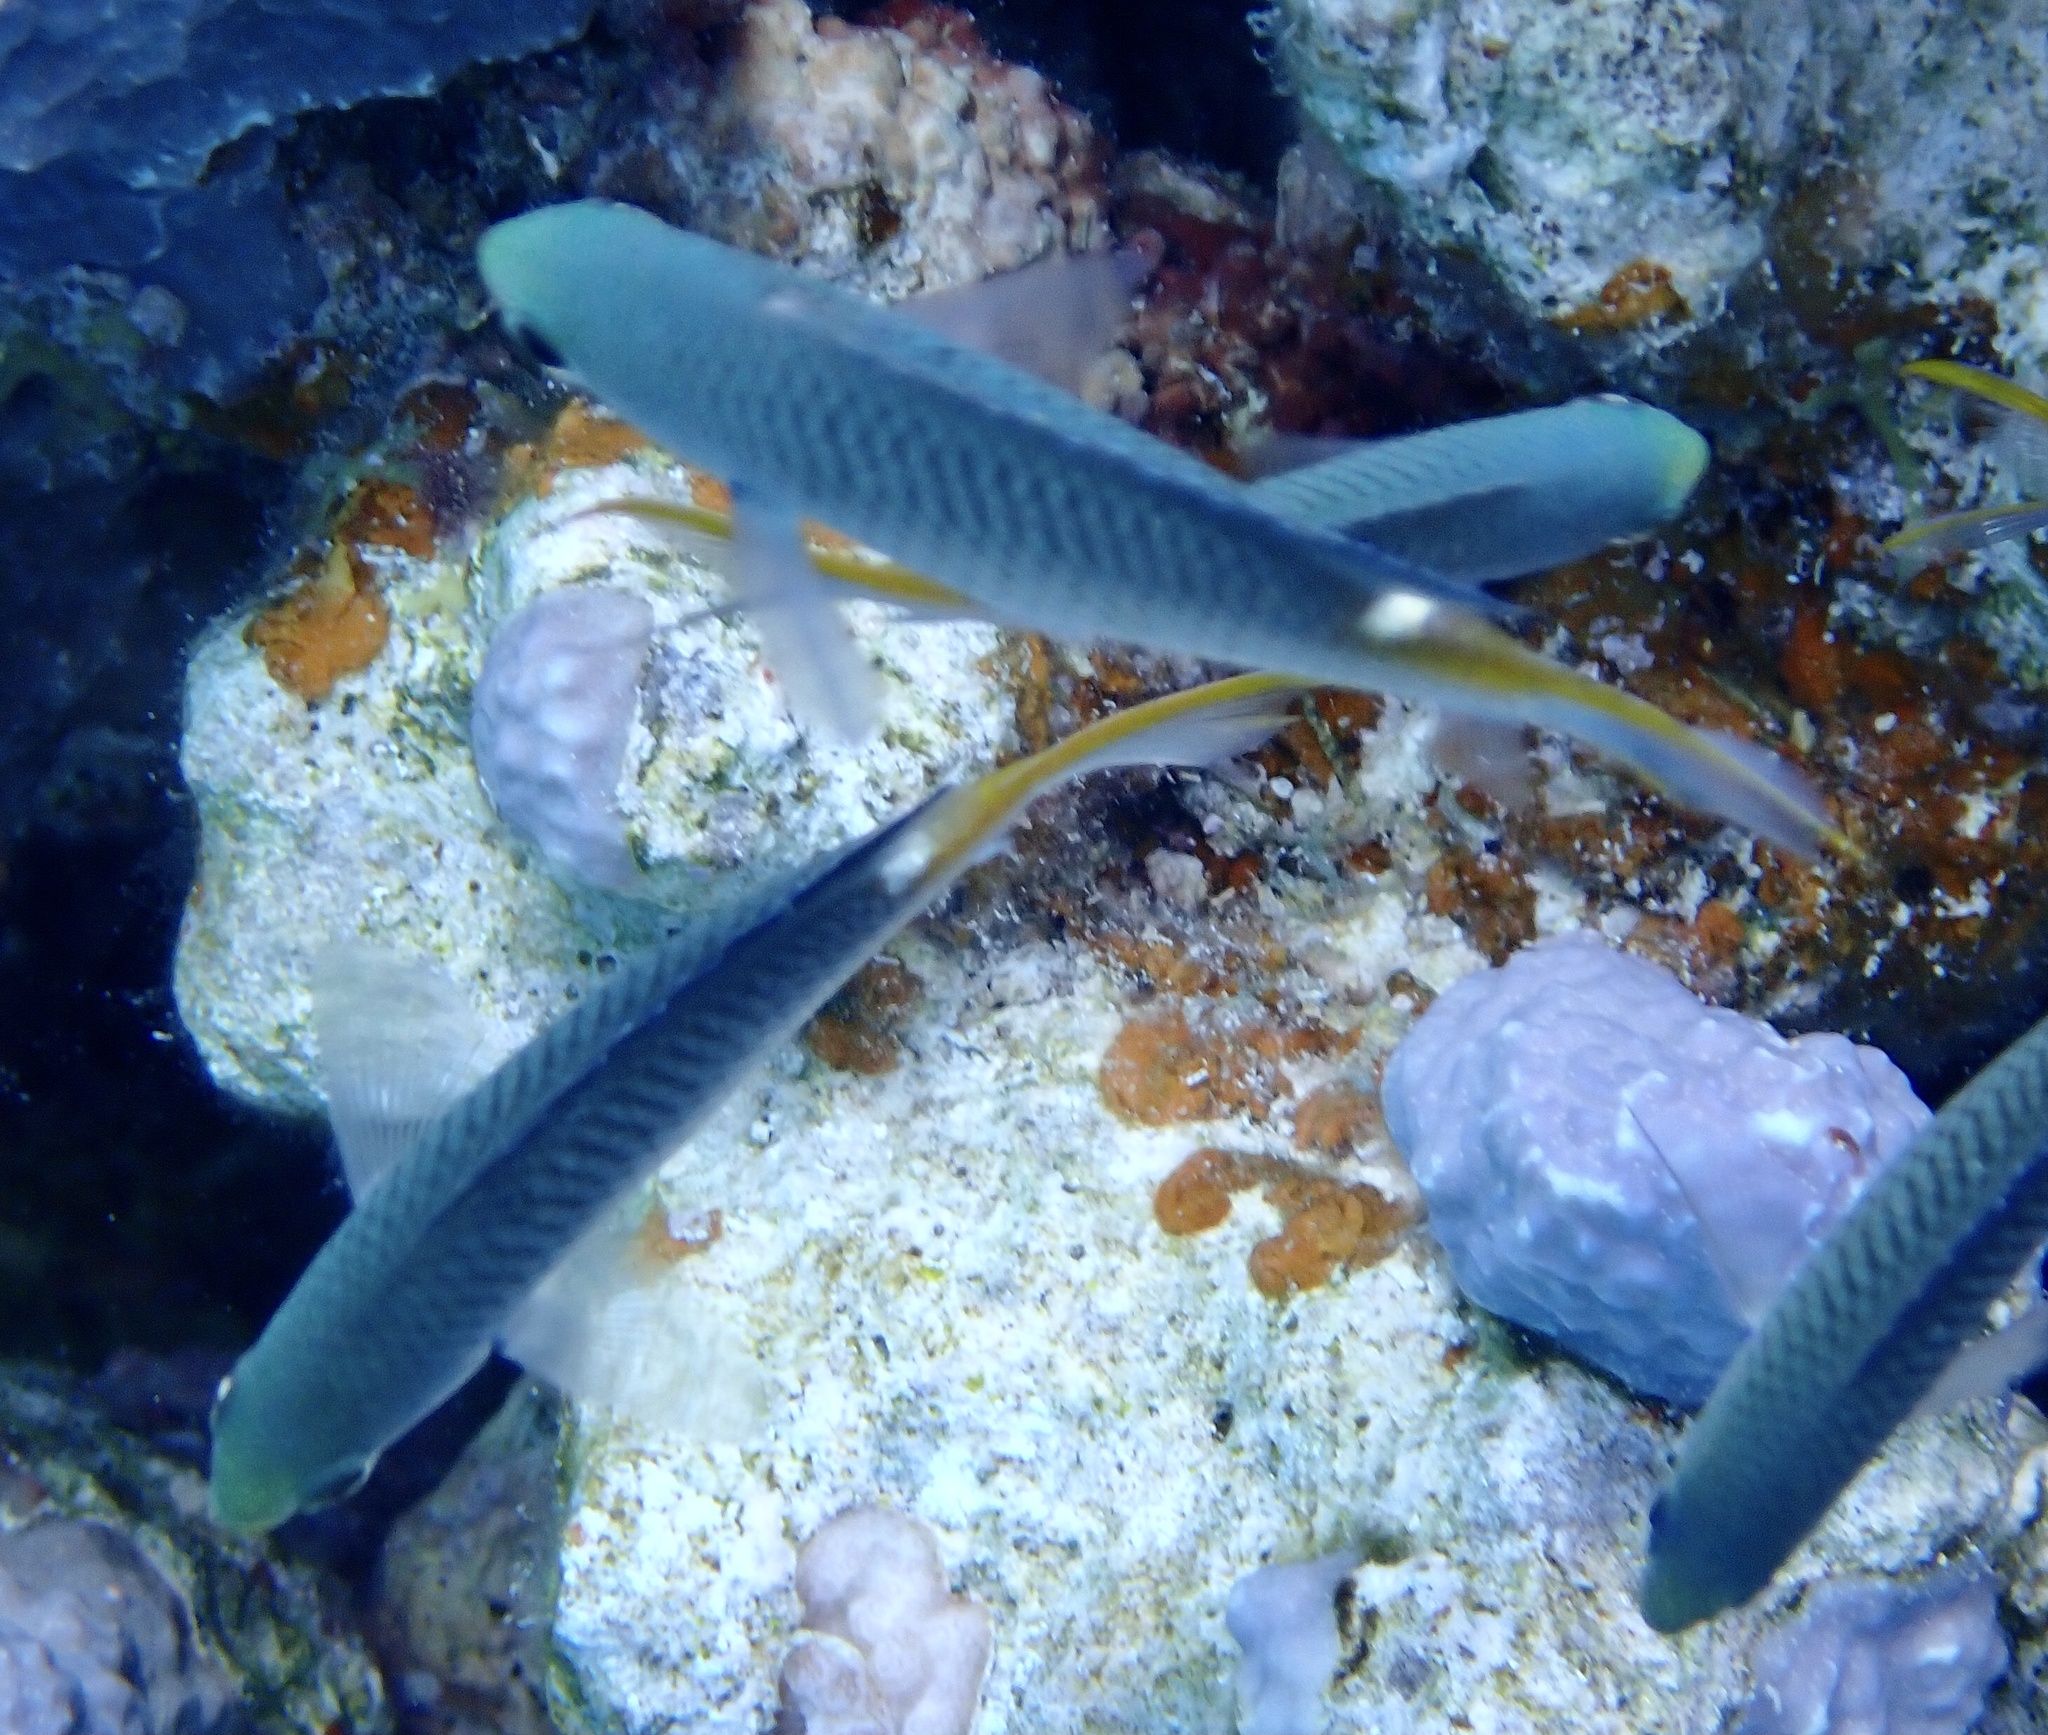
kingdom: Animalia
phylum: Chordata
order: Perciformes
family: Pomacentridae
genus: Neopomacentrus
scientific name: Neopomacentrus miryae
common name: Miry's demoiselle
